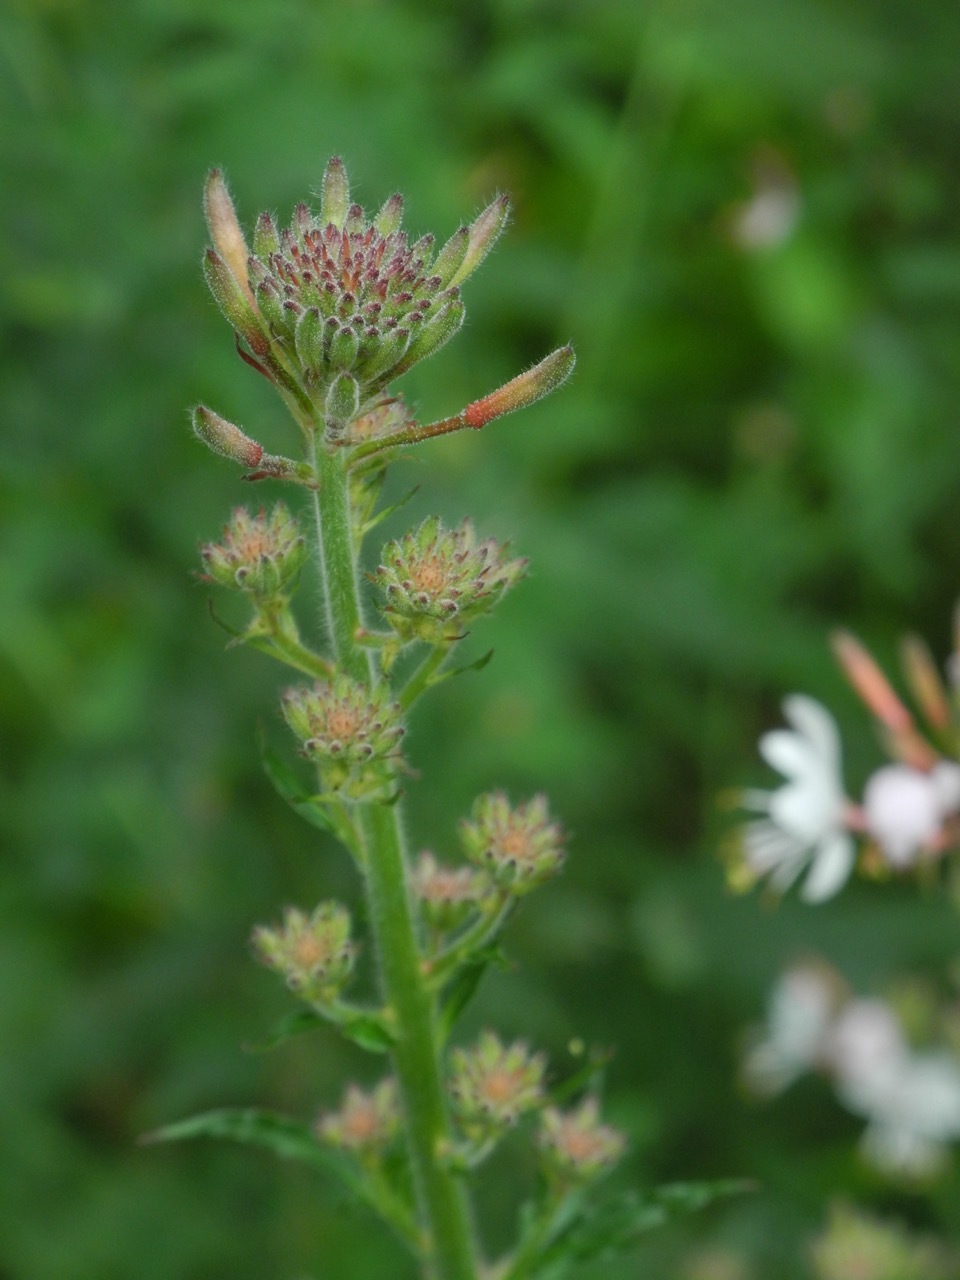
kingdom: Plantae
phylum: Tracheophyta
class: Magnoliopsida
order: Myrtales
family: Onagraceae
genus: Oenothera
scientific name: Oenothera lindheimeri
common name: Lindheimer's beeblossom
